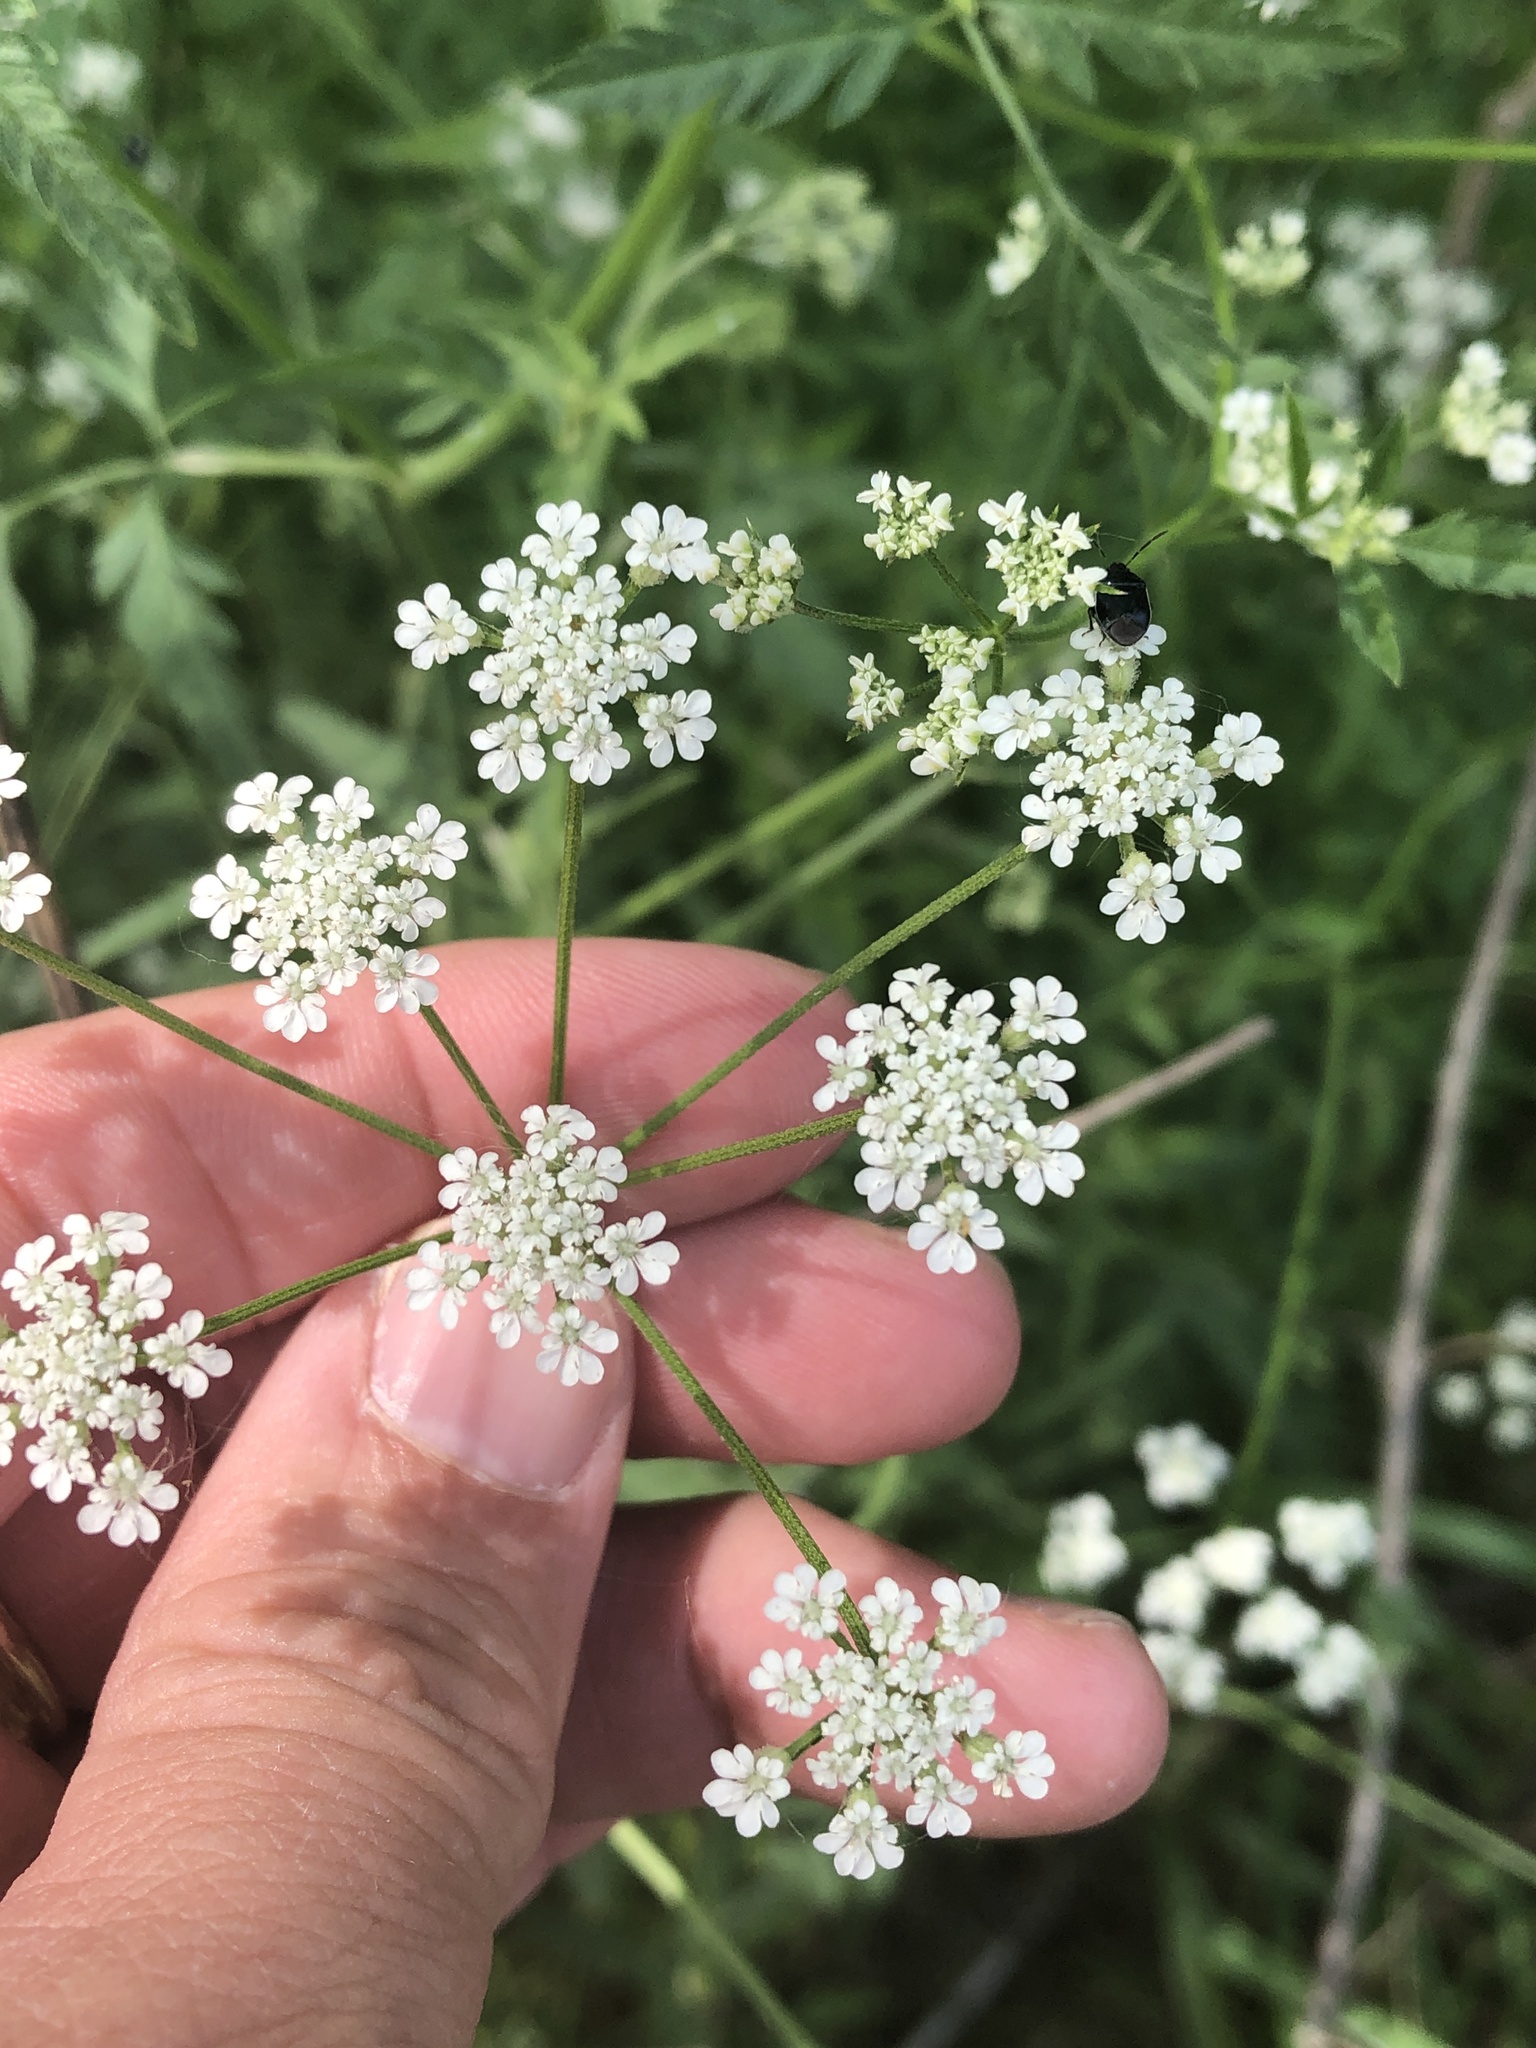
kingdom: Plantae
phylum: Tracheophyta
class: Magnoliopsida
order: Apiales
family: Apiaceae
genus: Torilis
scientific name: Torilis arvensis
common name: Spreading hedge-parsley
